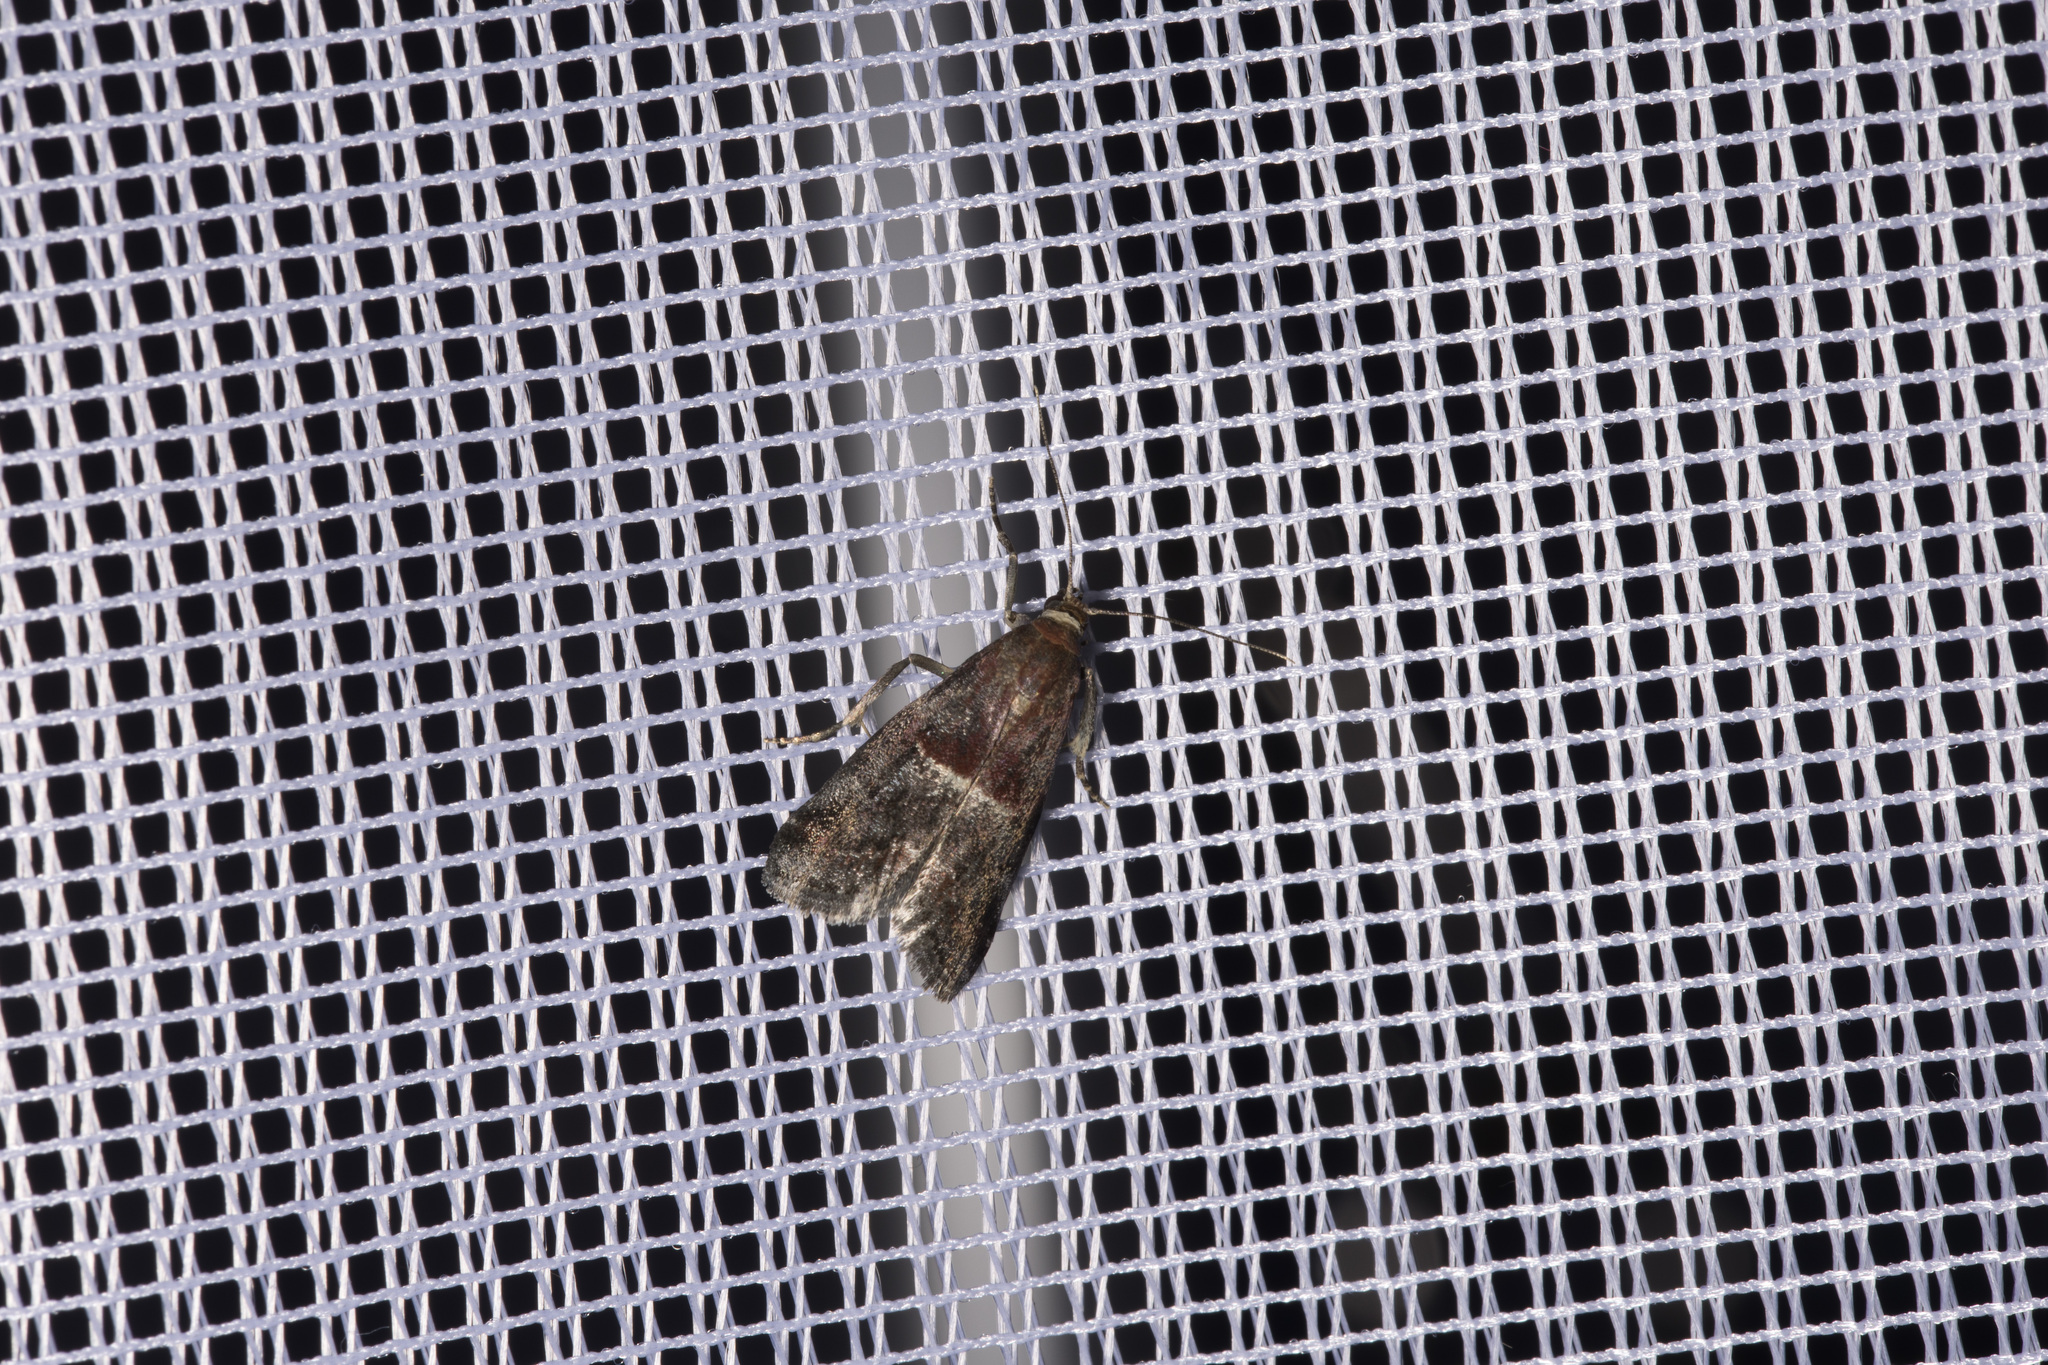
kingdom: Animalia
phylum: Arthropoda
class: Insecta
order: Lepidoptera
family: Pyralidae
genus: Acrobasis
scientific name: Acrobasis marmorea
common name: Marbled knot-horn
